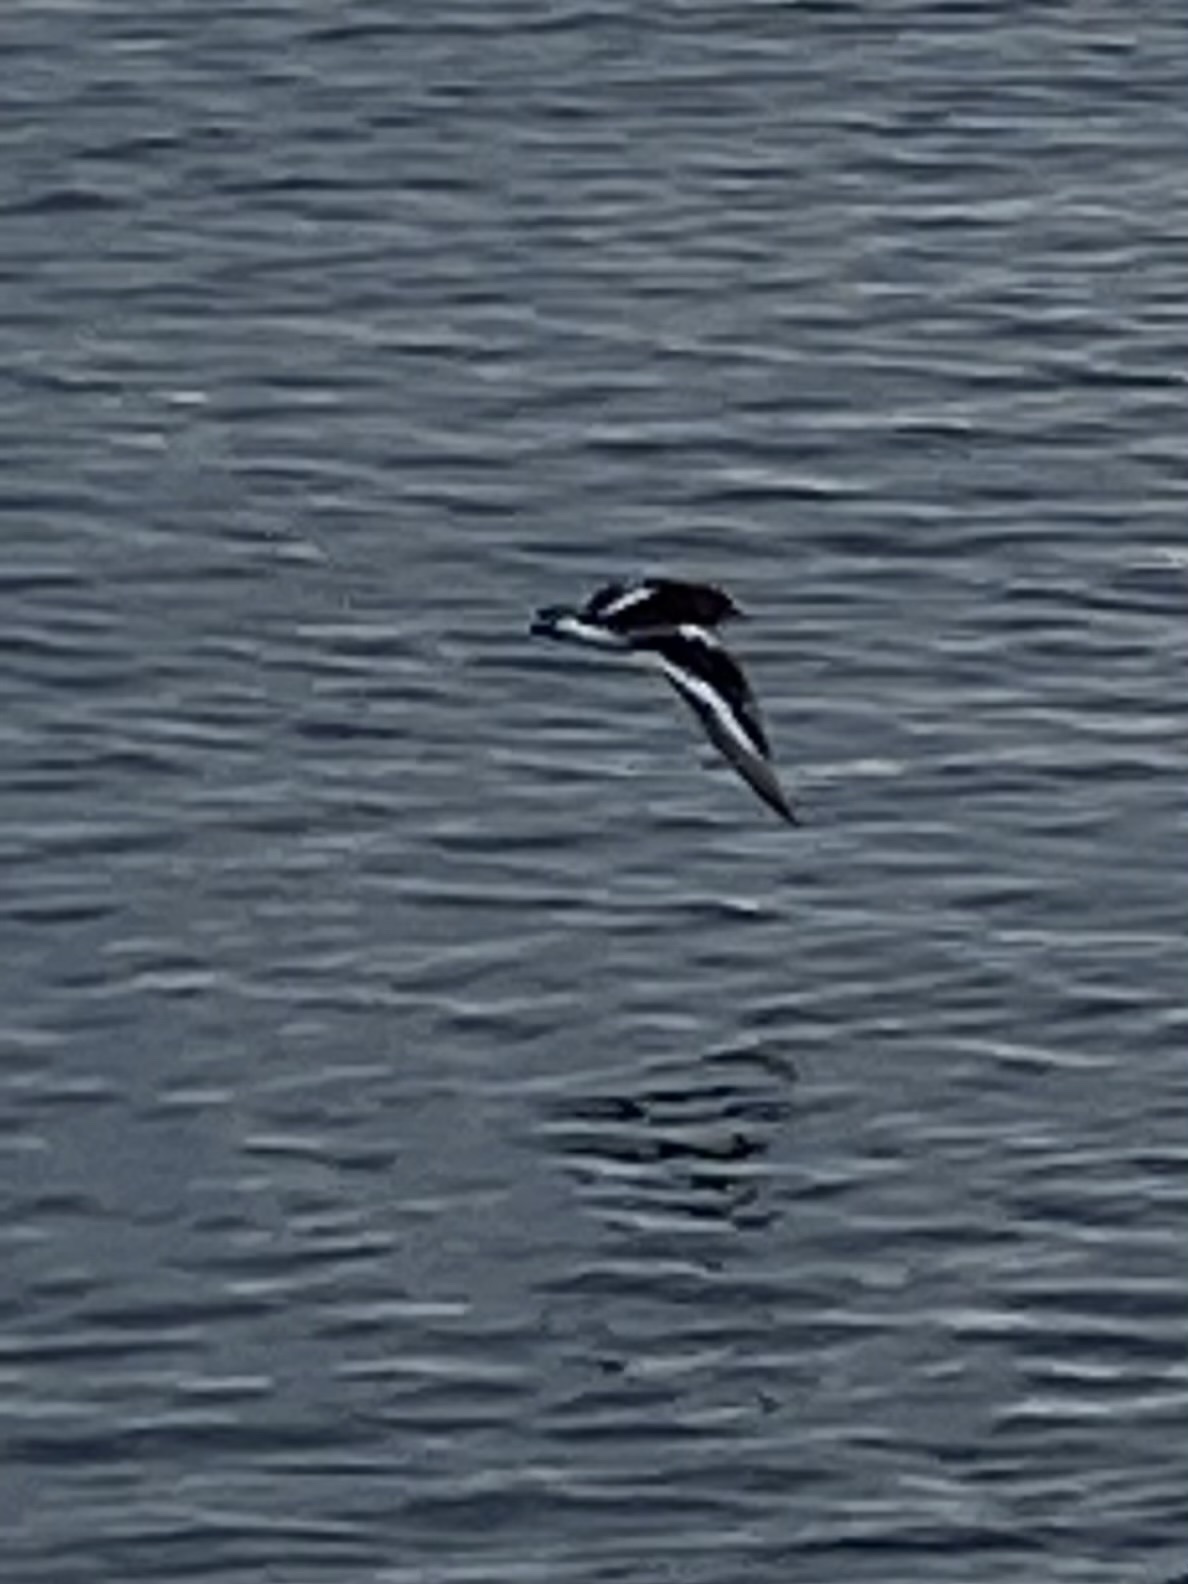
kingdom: Animalia
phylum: Chordata
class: Aves
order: Charadriiformes
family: Scolopacidae
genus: Arenaria
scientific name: Arenaria melanocephala
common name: Black turnstone
